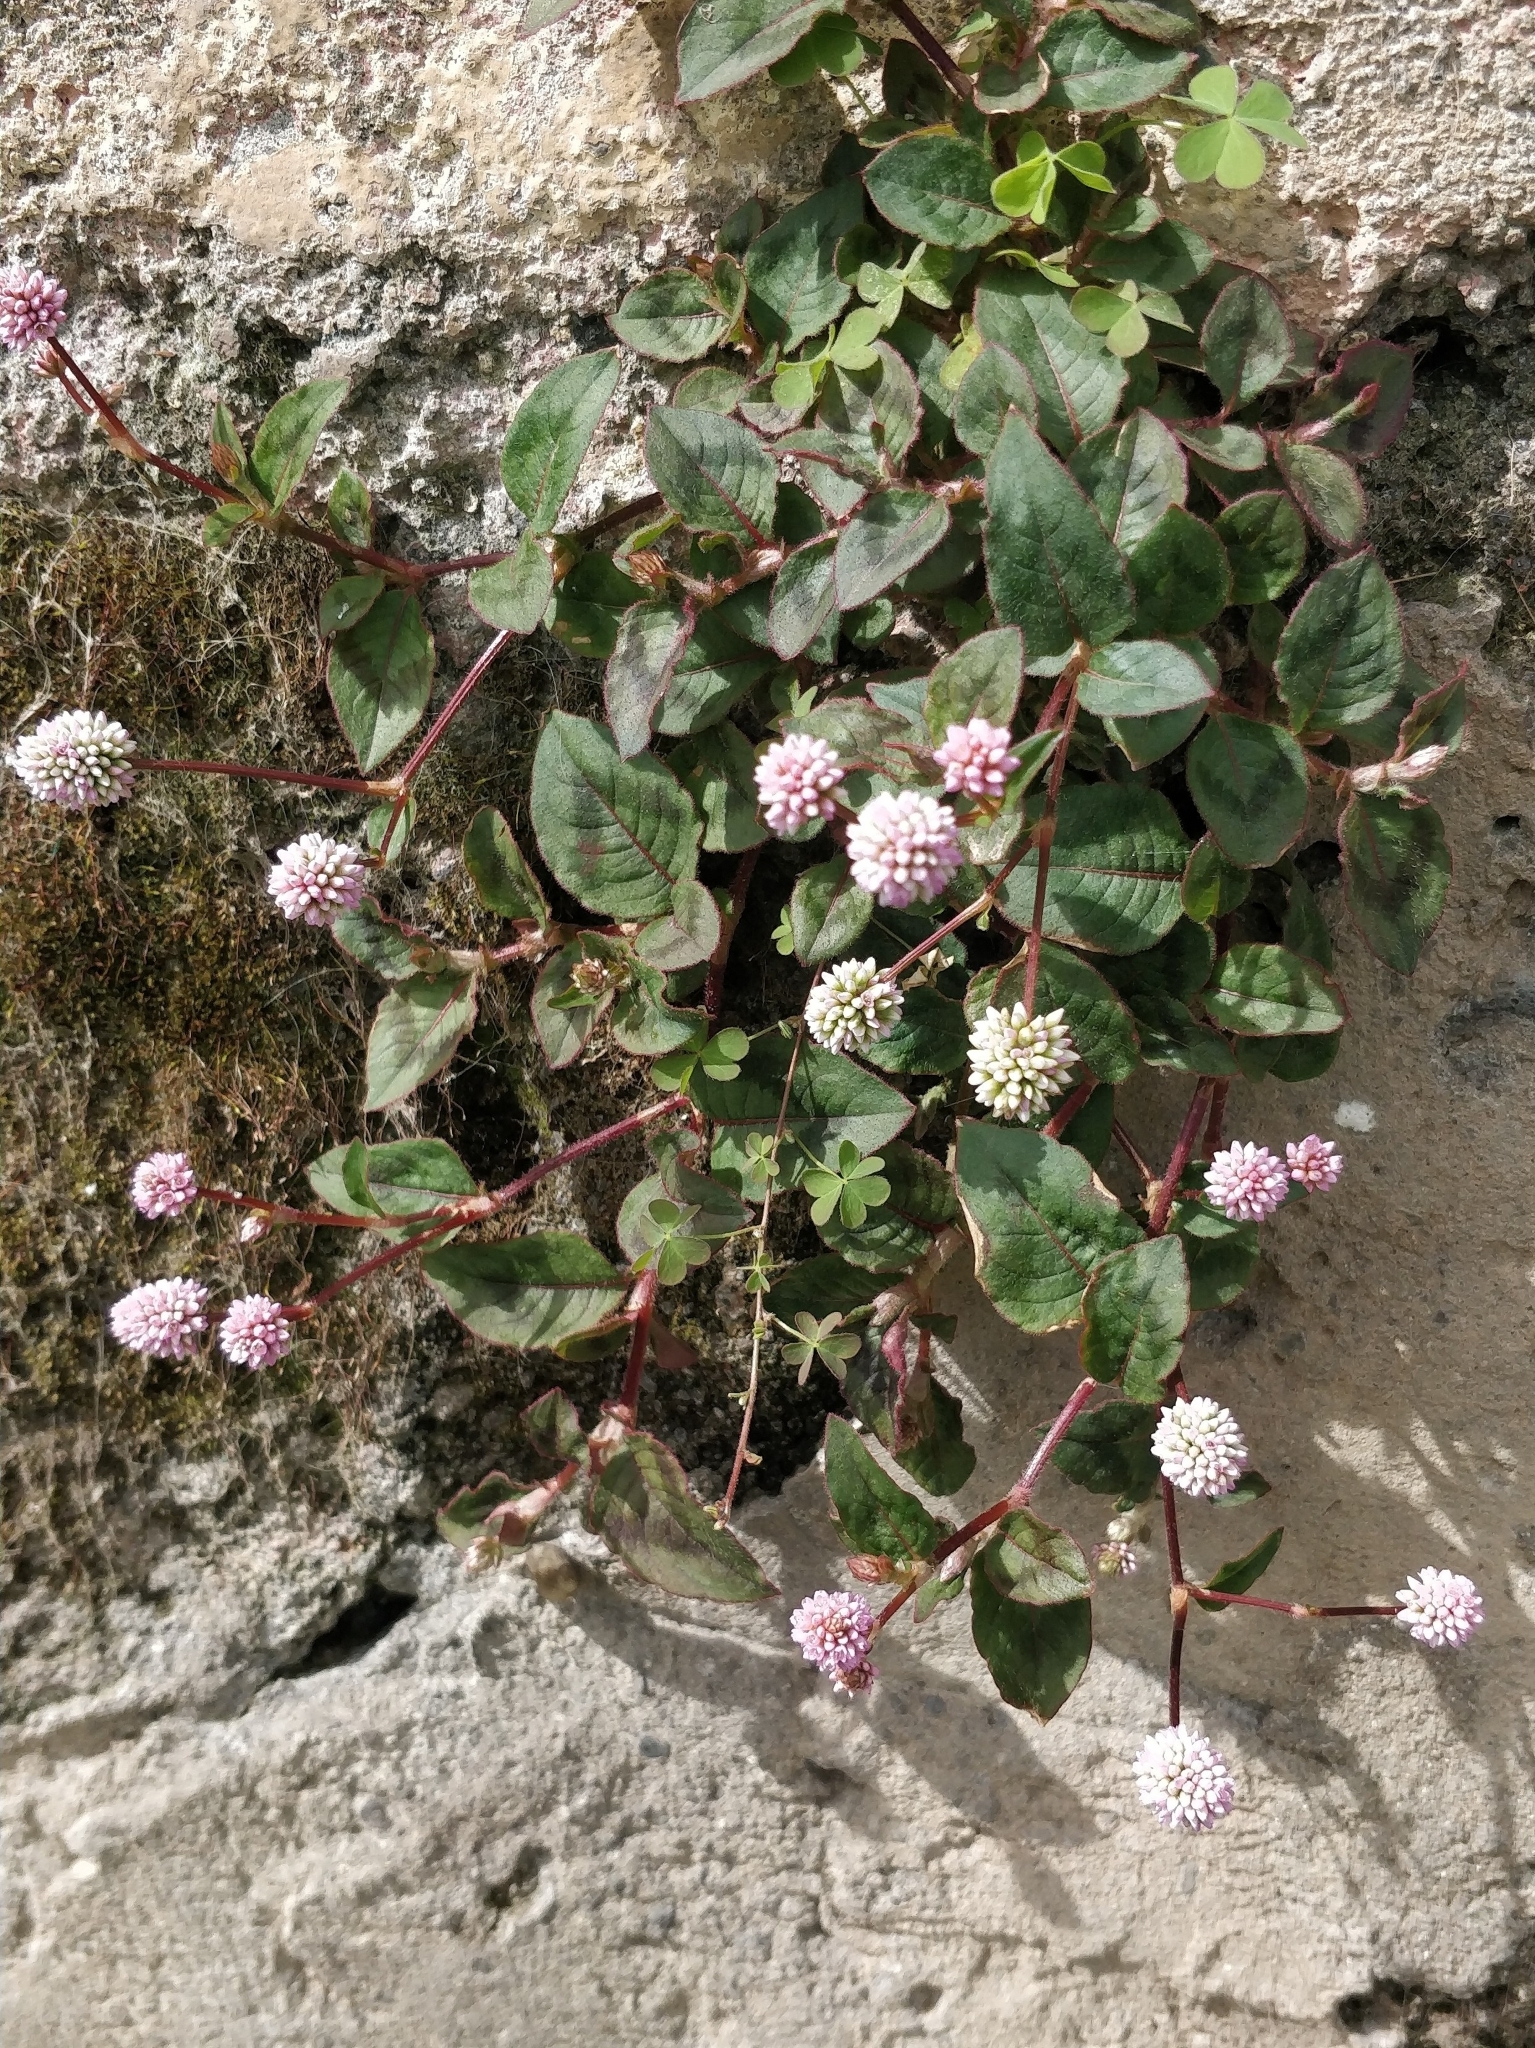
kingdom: Plantae
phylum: Tracheophyta
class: Magnoliopsida
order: Caryophyllales
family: Polygonaceae
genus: Persicaria
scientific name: Persicaria capitata
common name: Pinkhead smartweed
